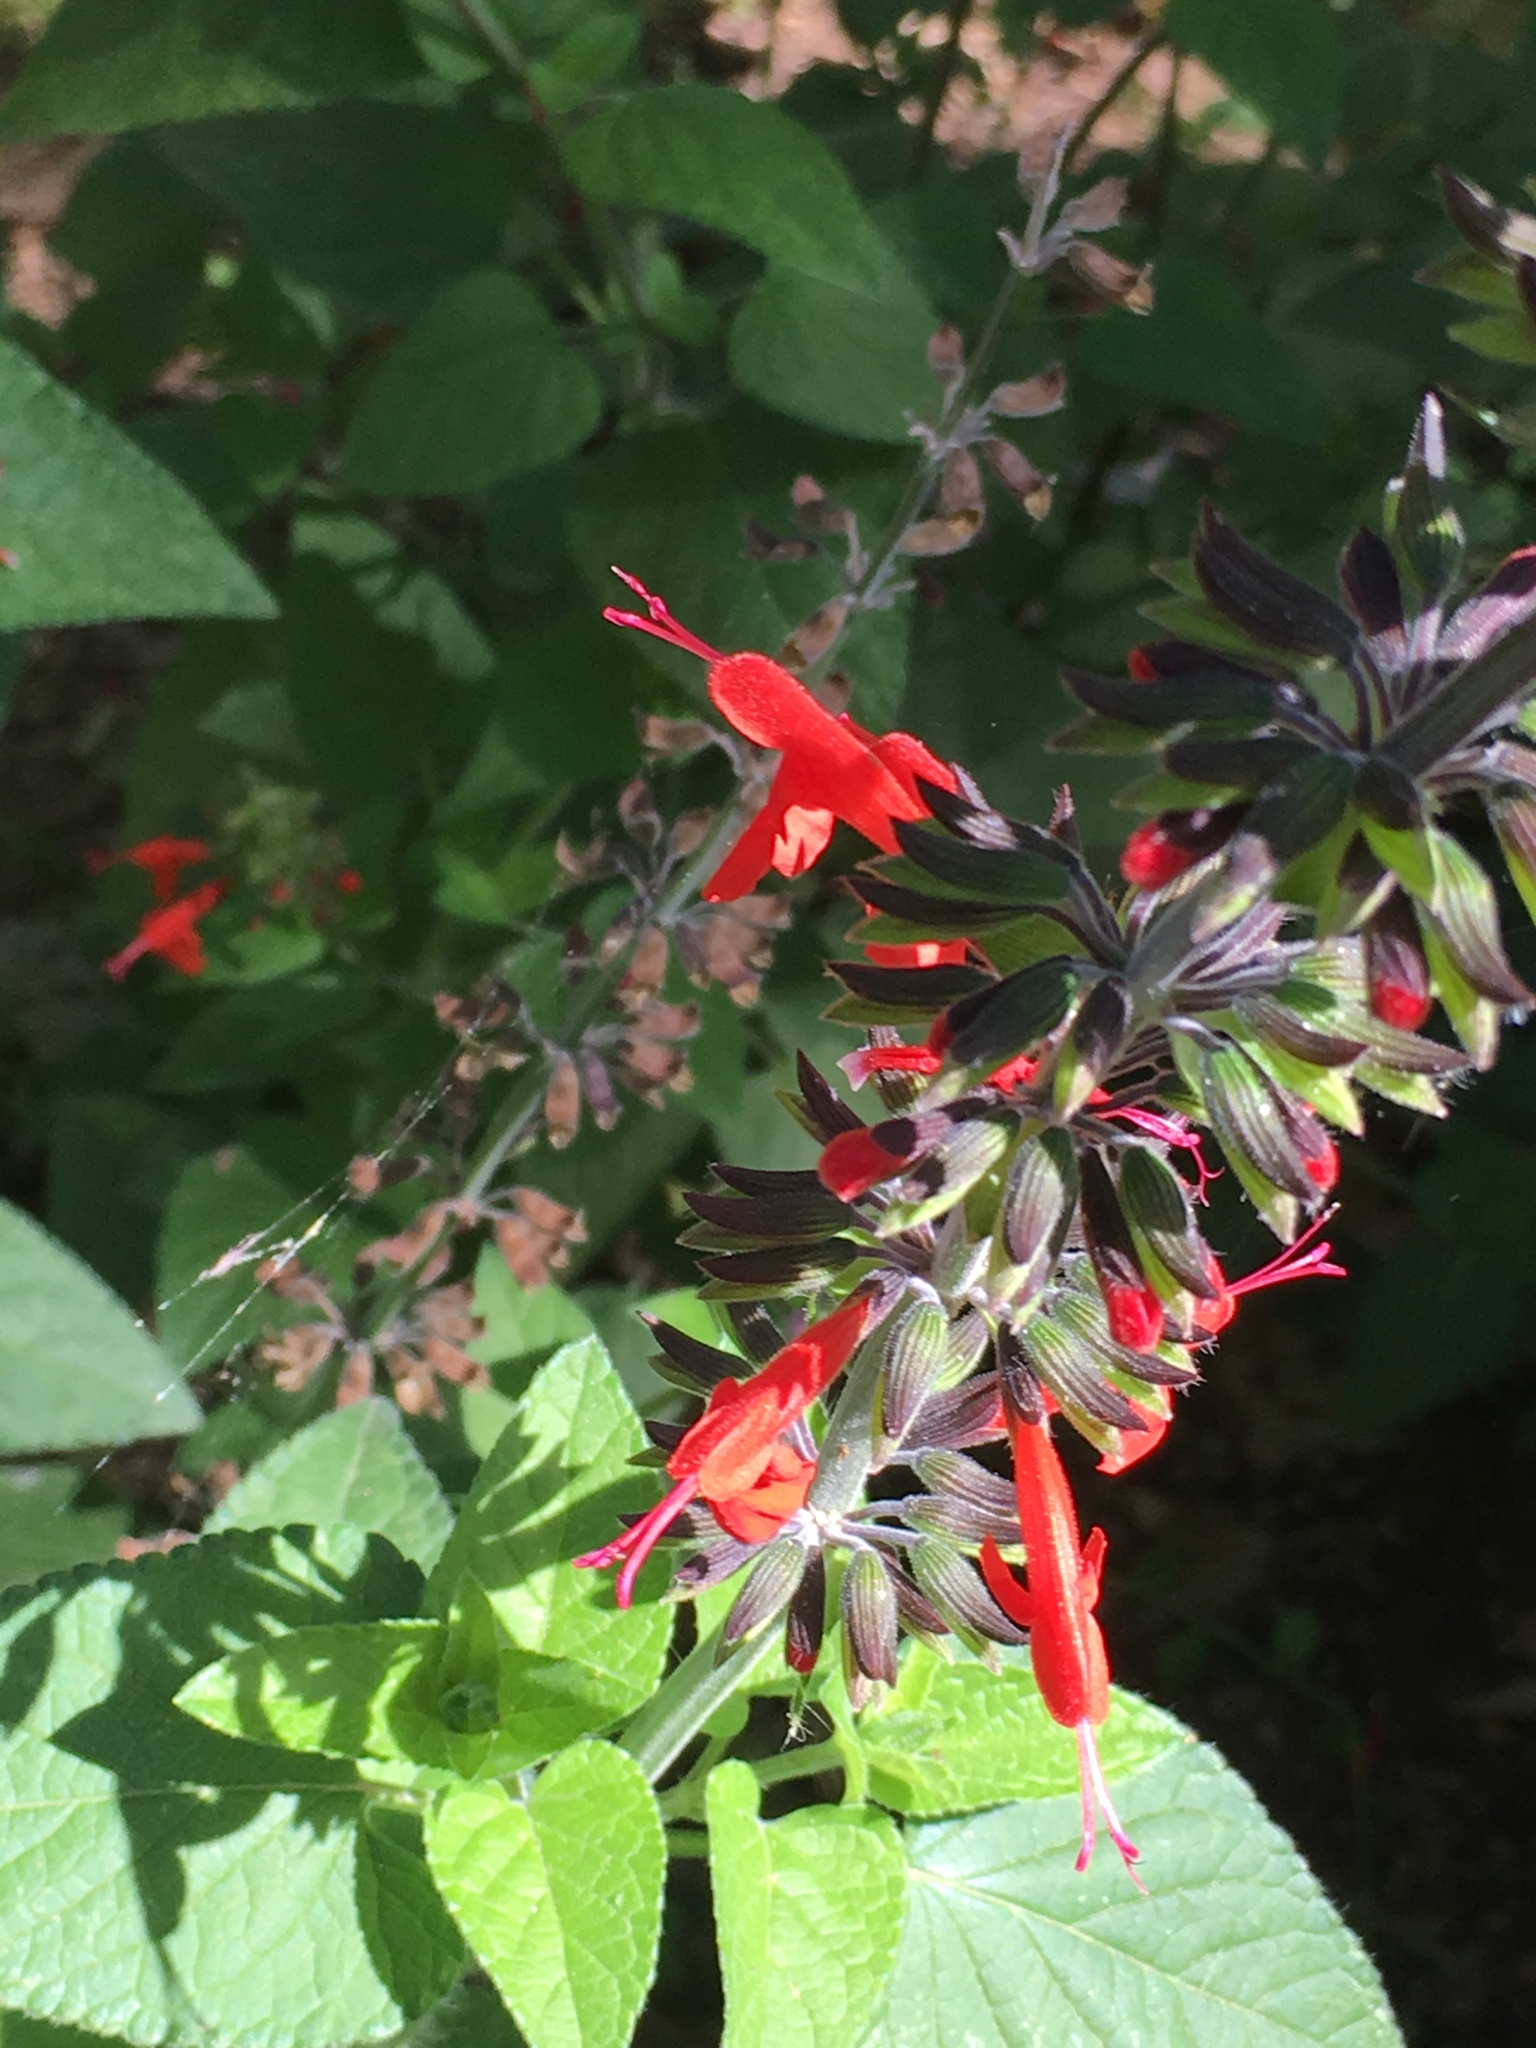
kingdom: Plantae
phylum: Tracheophyta
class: Magnoliopsida
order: Lamiales
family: Lamiaceae
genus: Salvia
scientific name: Salvia coccinea
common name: Blood sage
